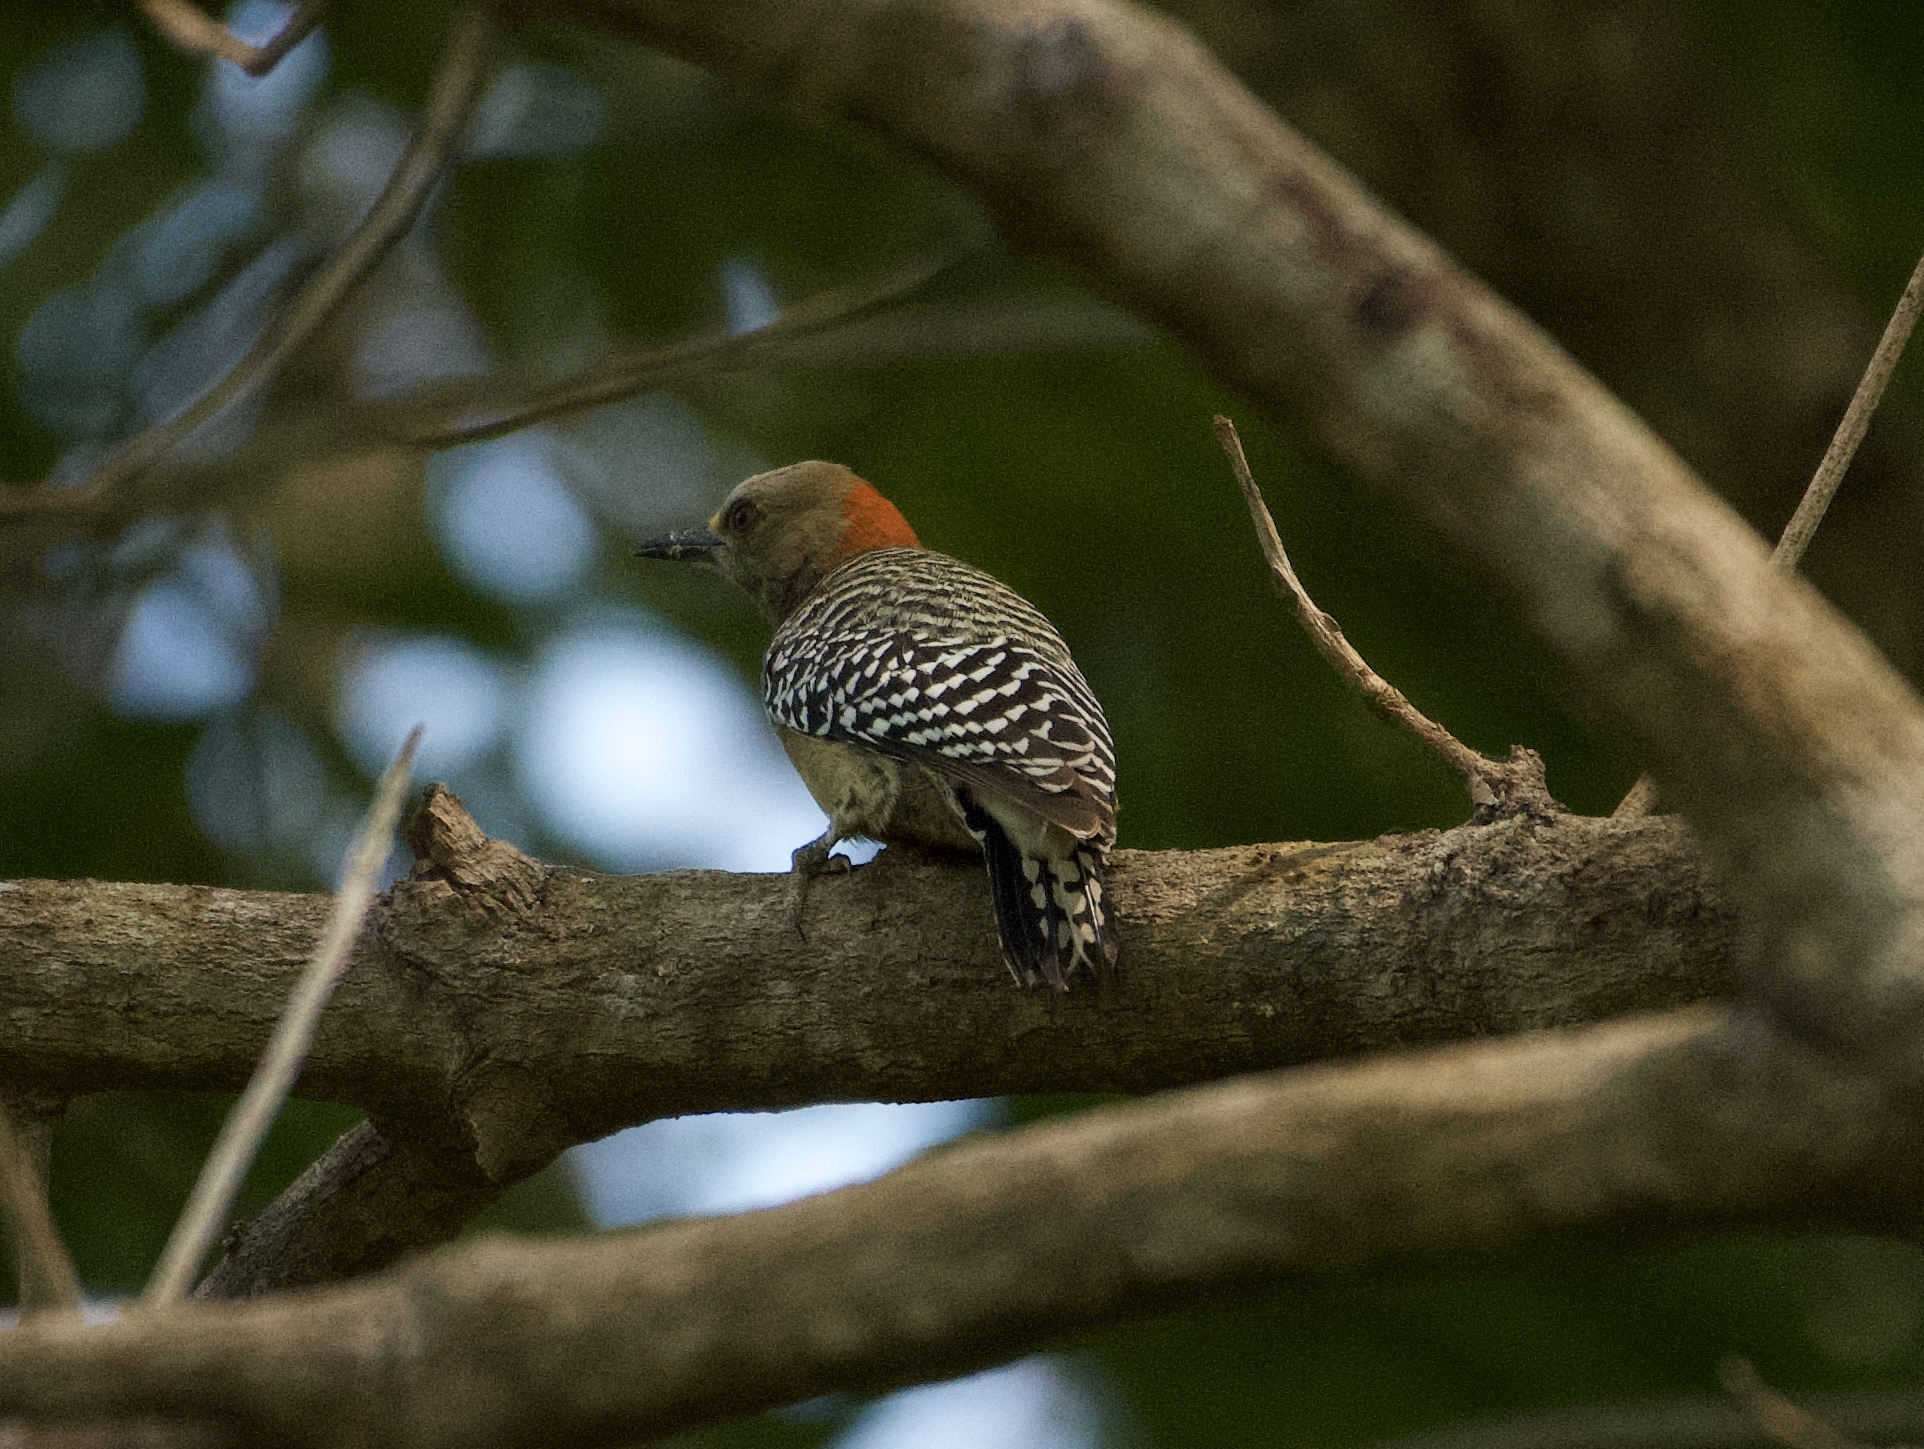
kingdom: Animalia
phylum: Chordata
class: Aves
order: Piciformes
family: Picidae
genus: Melanerpes
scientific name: Melanerpes rubricapillus
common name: Red-crowned woodpecker
